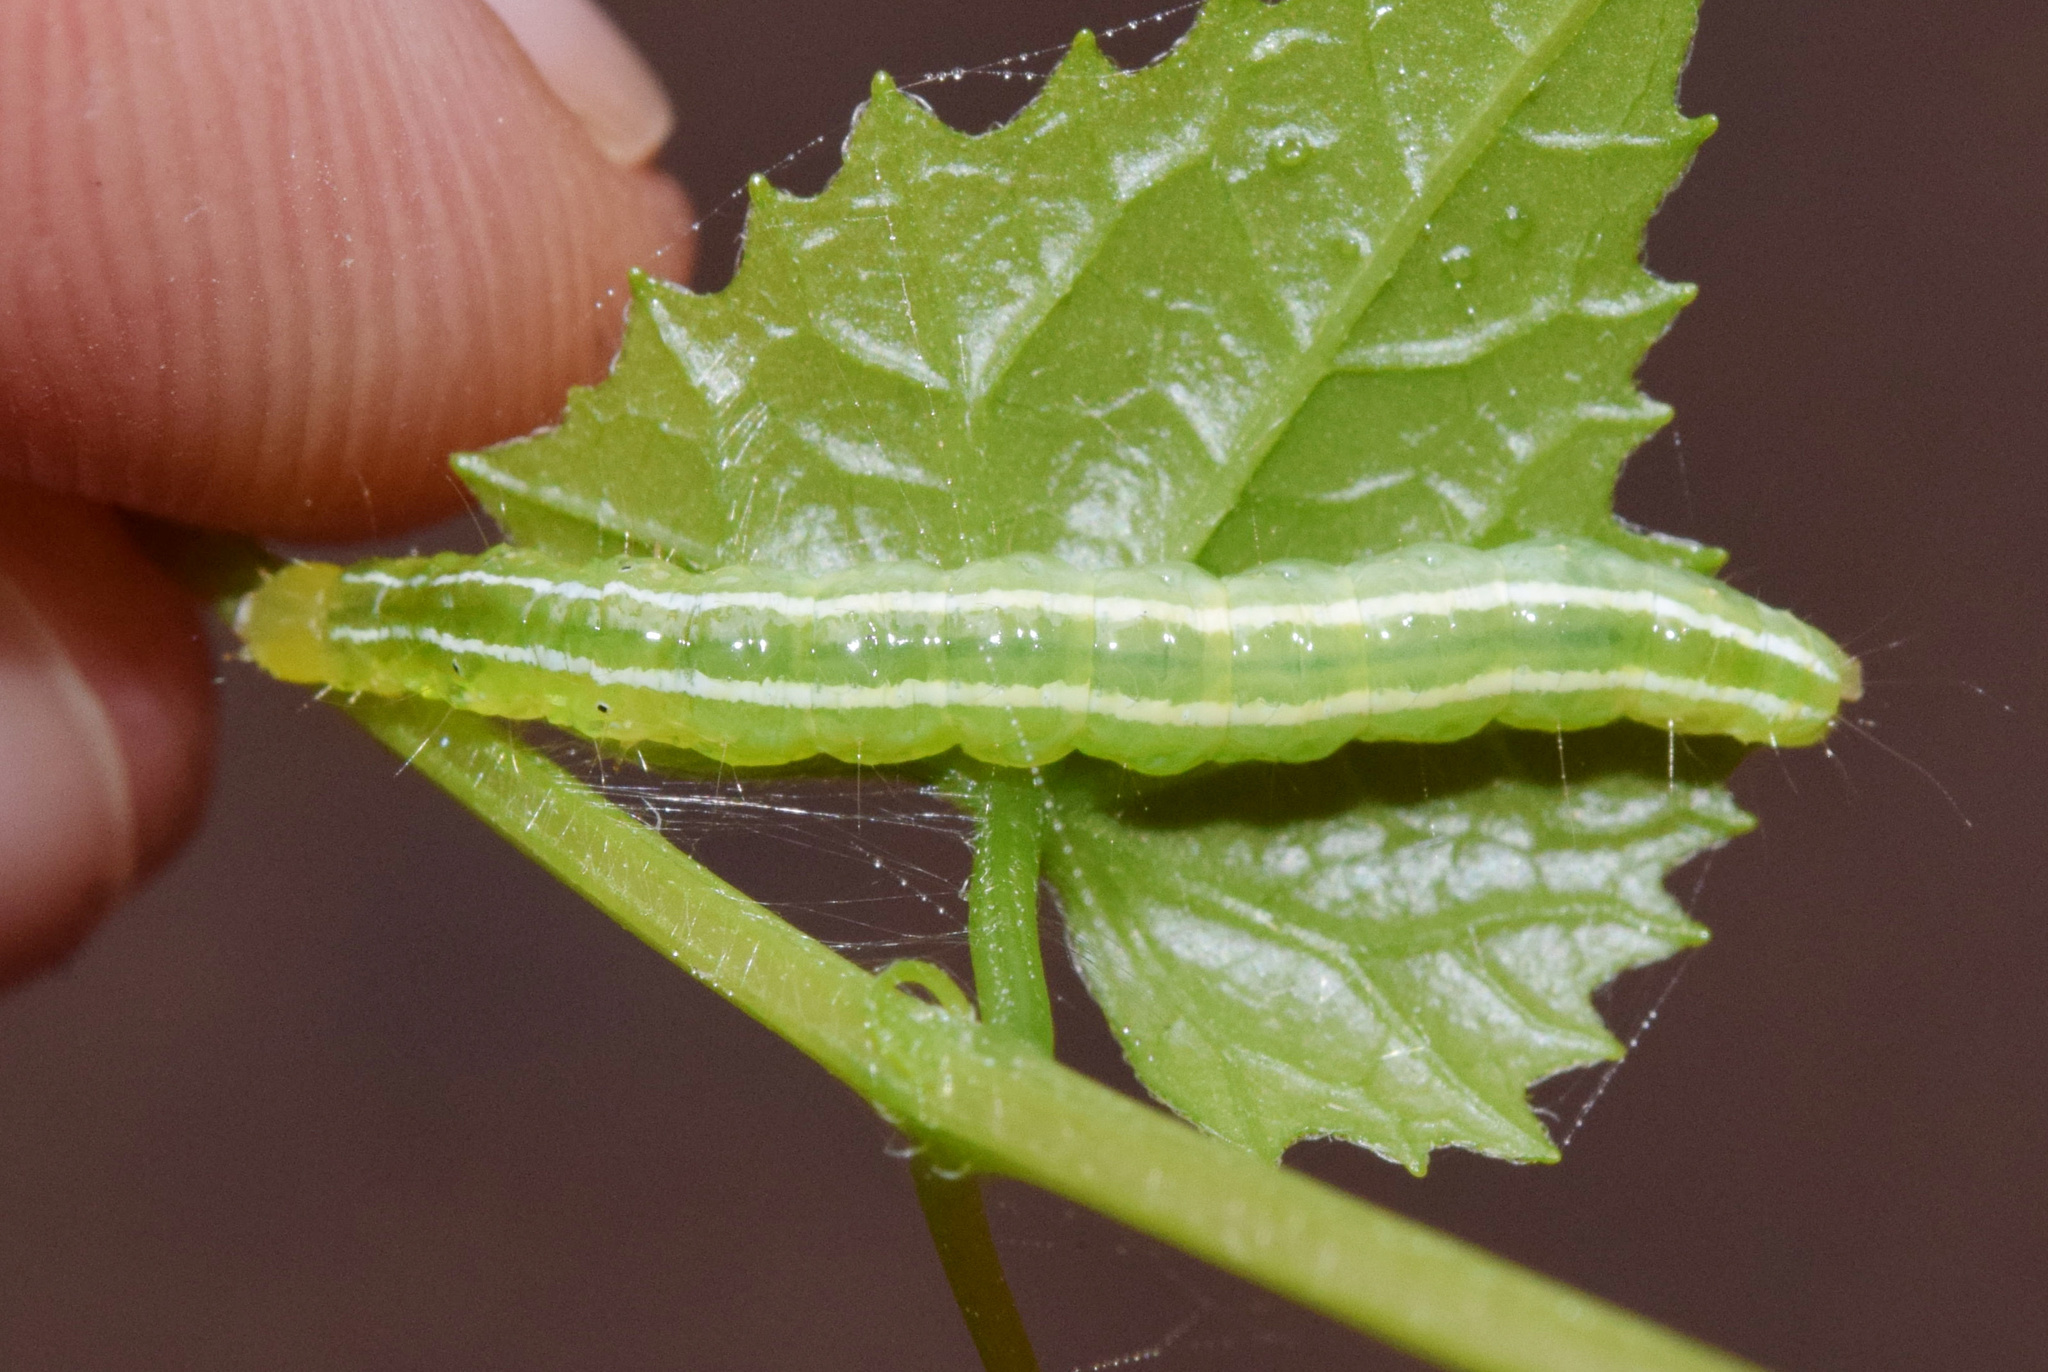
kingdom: Animalia
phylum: Arthropoda
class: Insecta
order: Lepidoptera
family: Crambidae
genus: Diaphania
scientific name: Diaphania indica
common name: Cucumber moth
